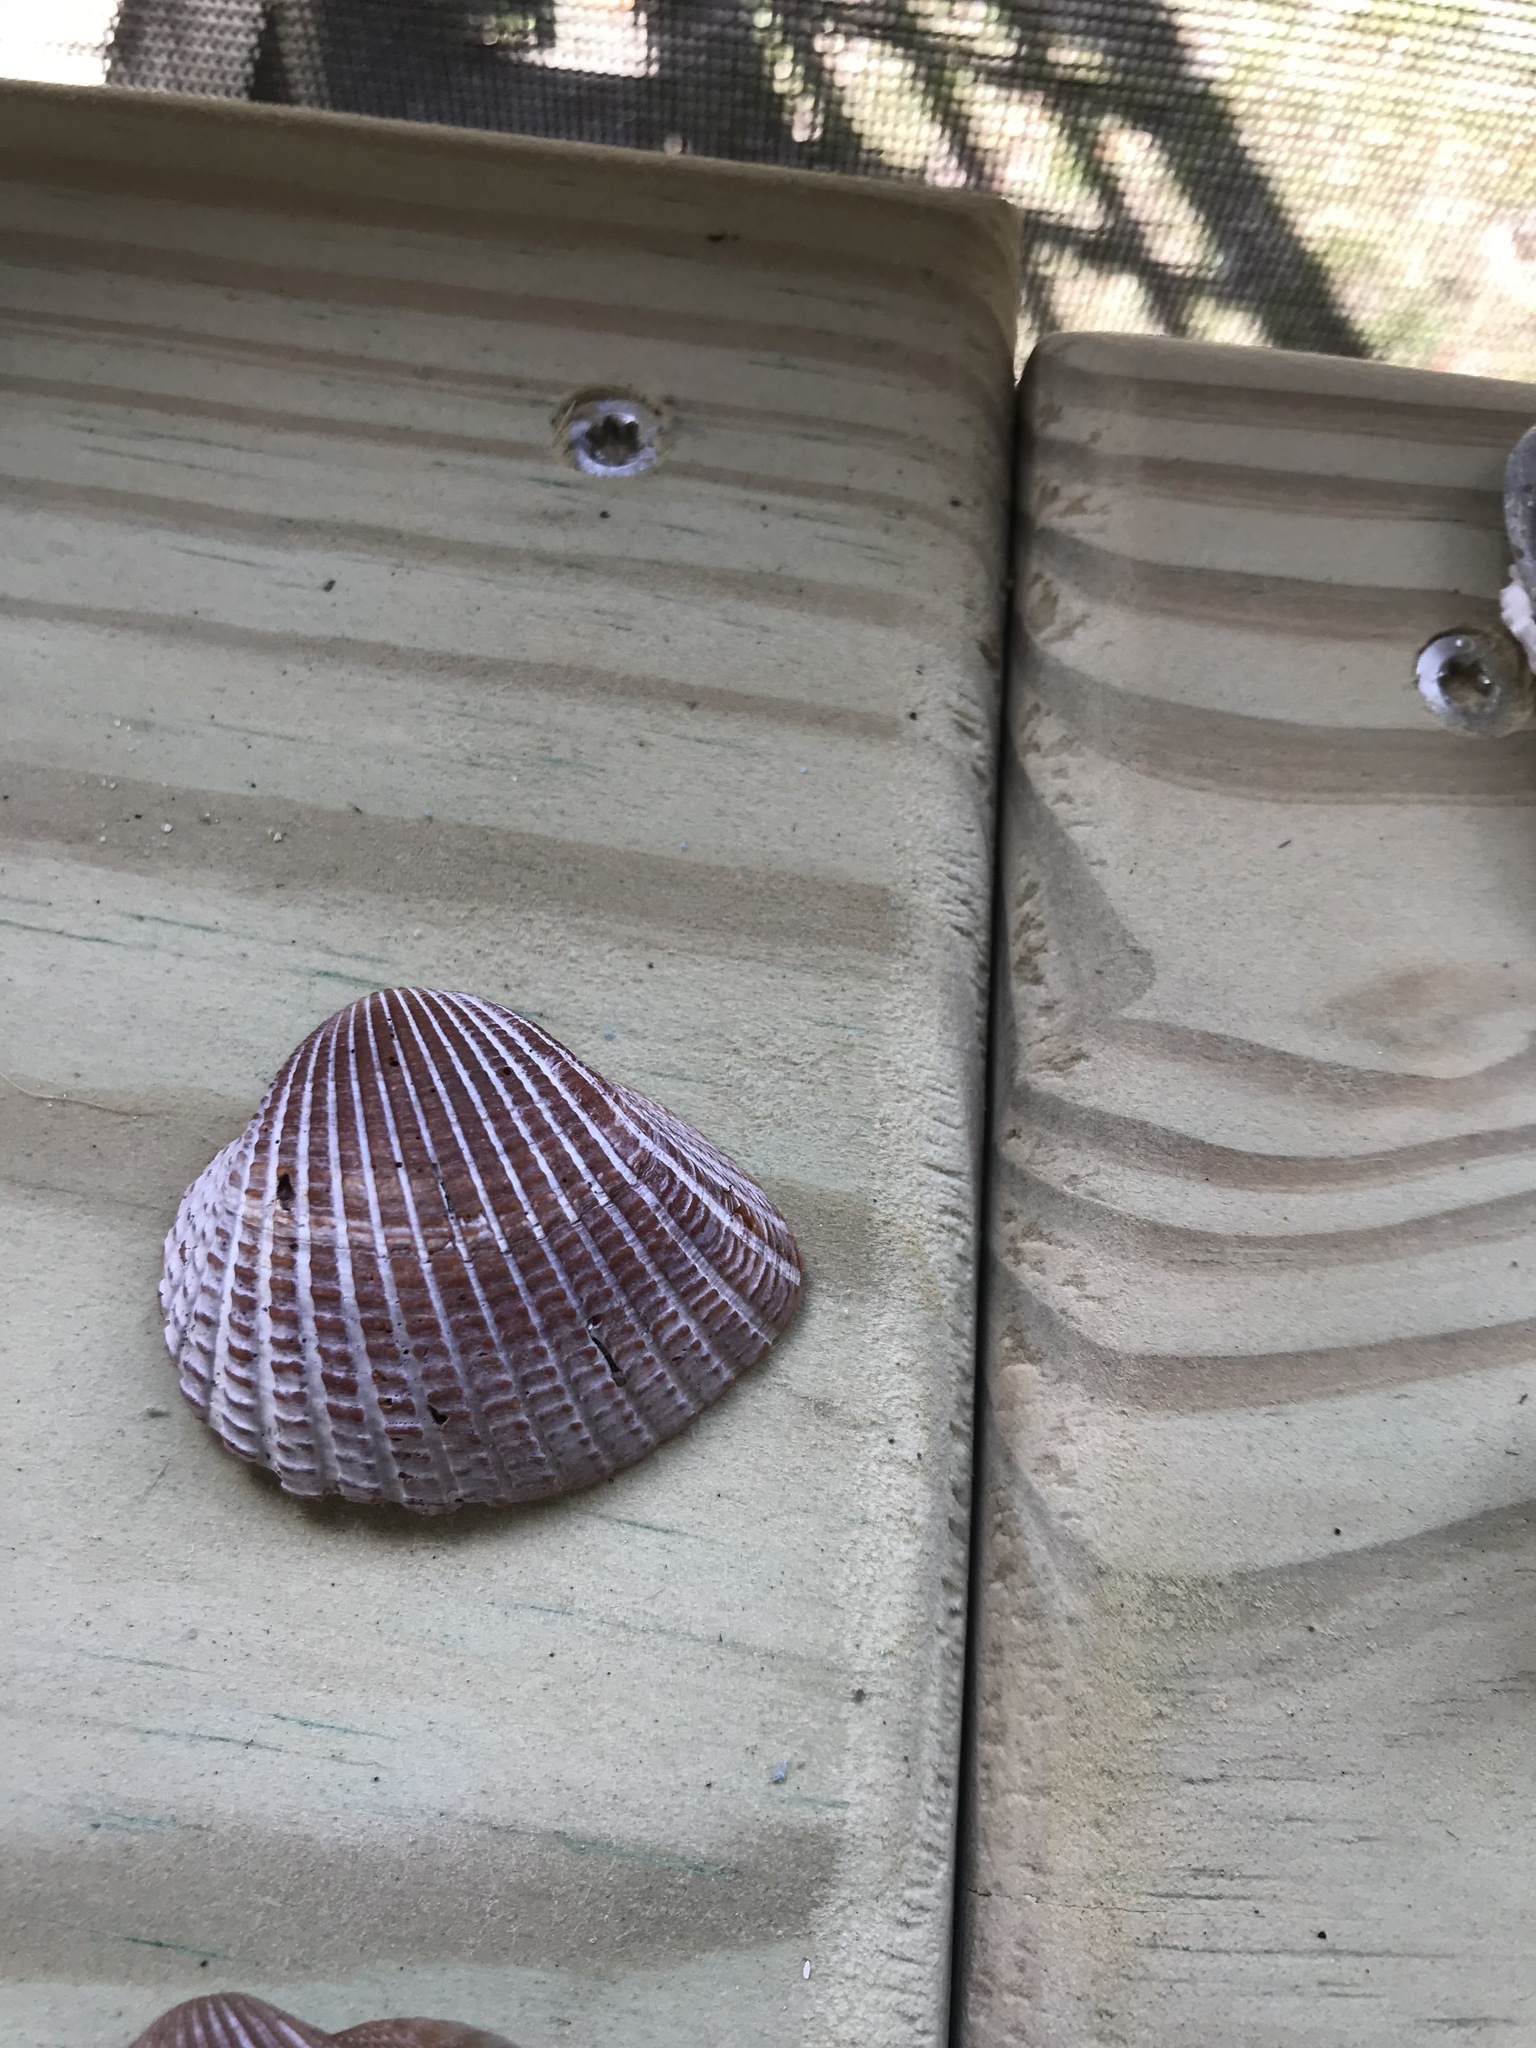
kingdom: Animalia
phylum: Mollusca
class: Bivalvia
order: Arcida
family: Arcidae
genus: Anadara
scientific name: Anadara brasiliana
